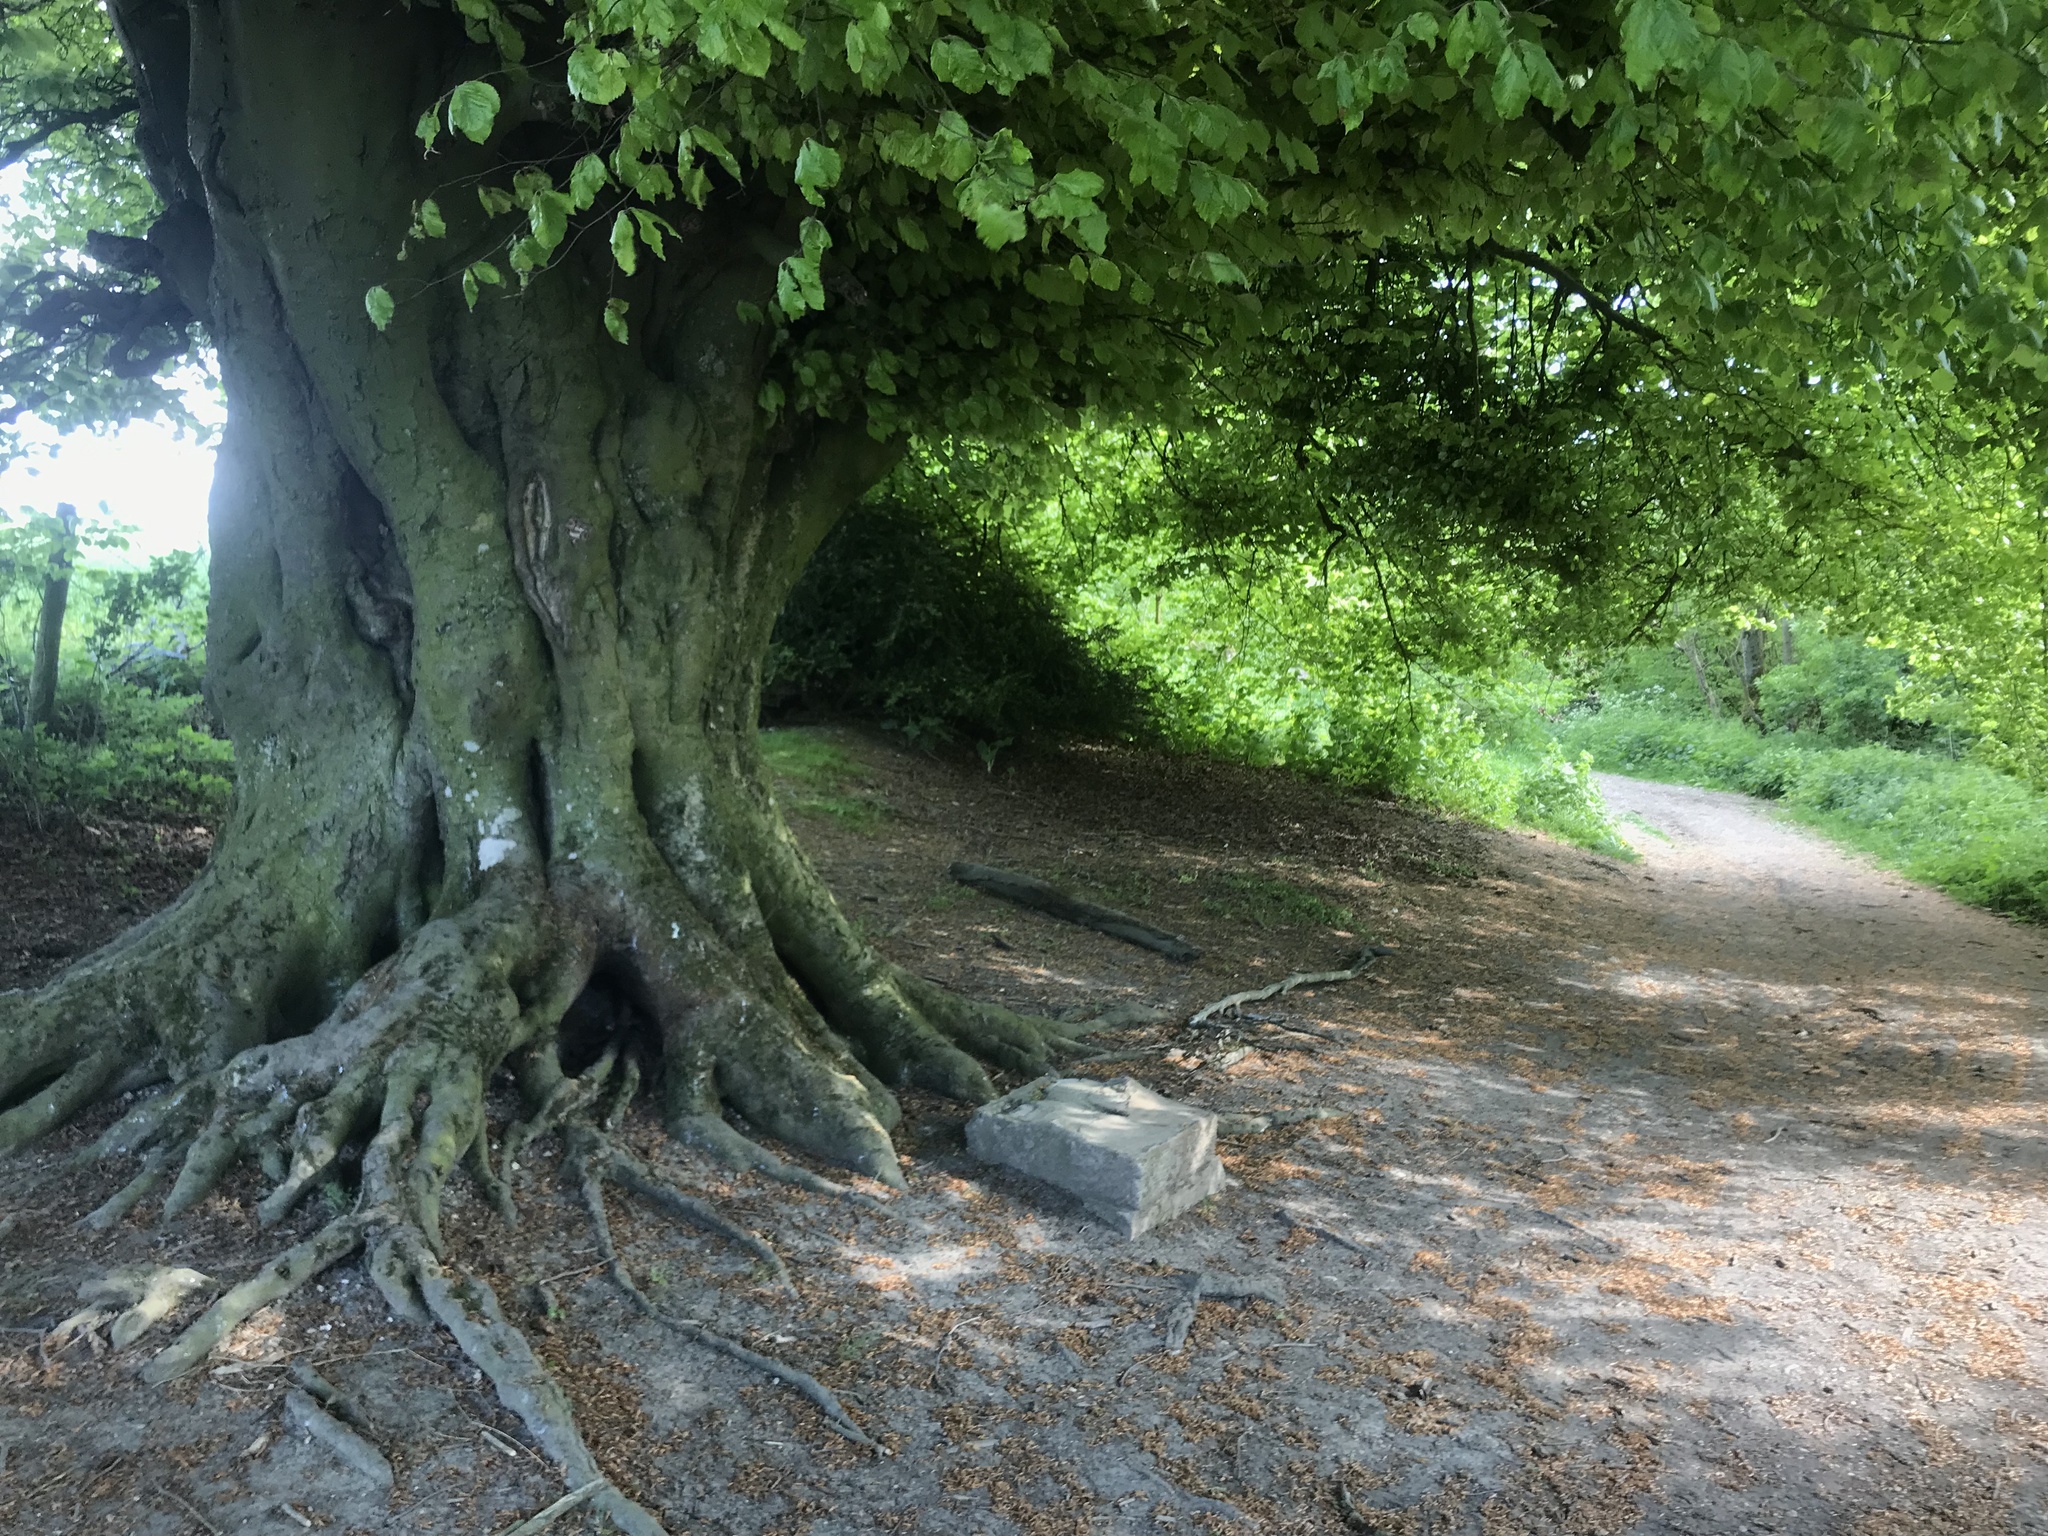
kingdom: Plantae
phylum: Tracheophyta
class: Magnoliopsida
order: Fagales
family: Fagaceae
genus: Fagus
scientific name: Fagus sylvatica
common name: Beech
